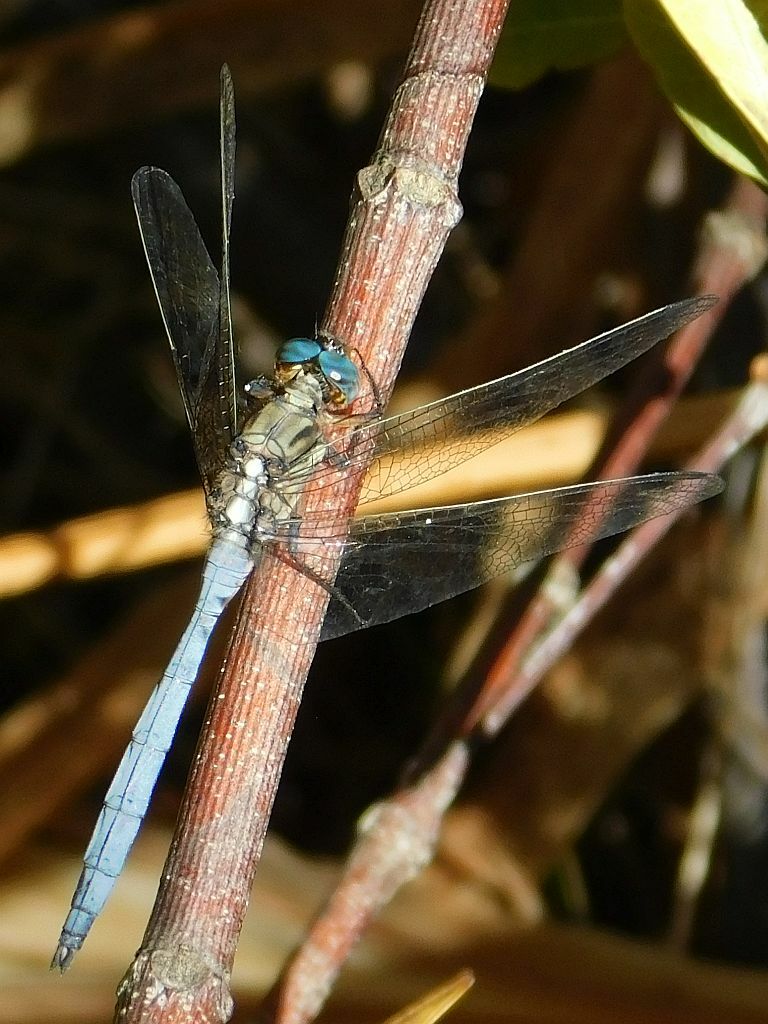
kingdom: Animalia
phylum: Arthropoda
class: Insecta
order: Odonata
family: Libellulidae
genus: Orthetrum
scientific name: Orthetrum julia
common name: Julia skimmer
